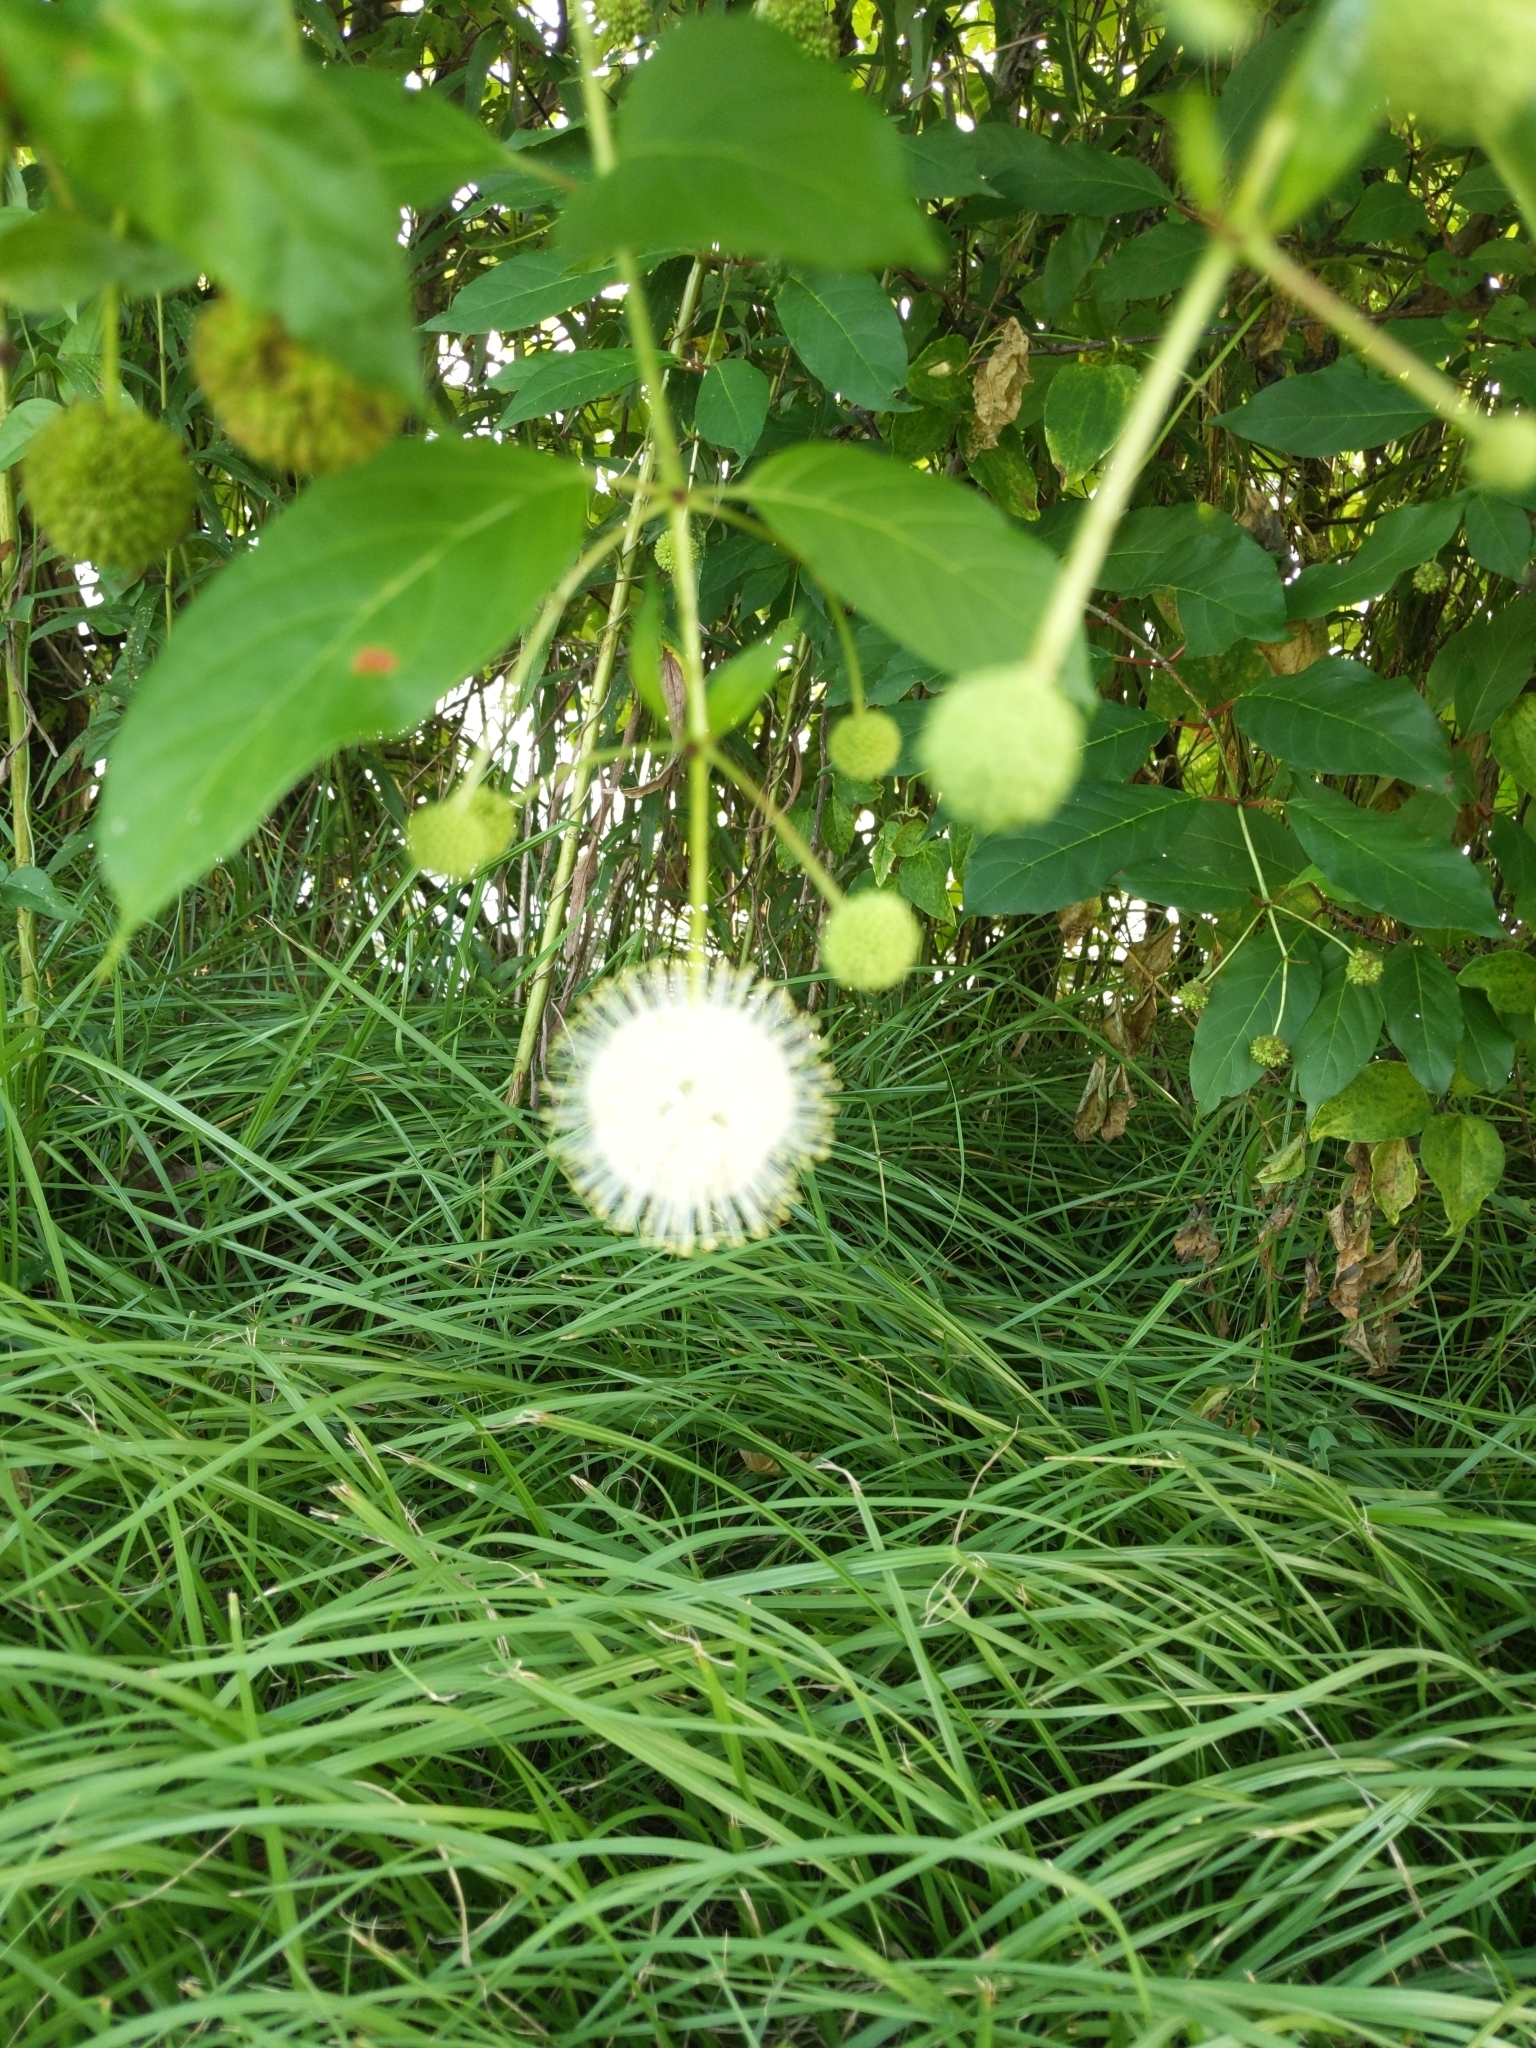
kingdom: Plantae
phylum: Tracheophyta
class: Magnoliopsida
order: Gentianales
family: Rubiaceae
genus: Cephalanthus
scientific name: Cephalanthus occidentalis
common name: Button-willow
